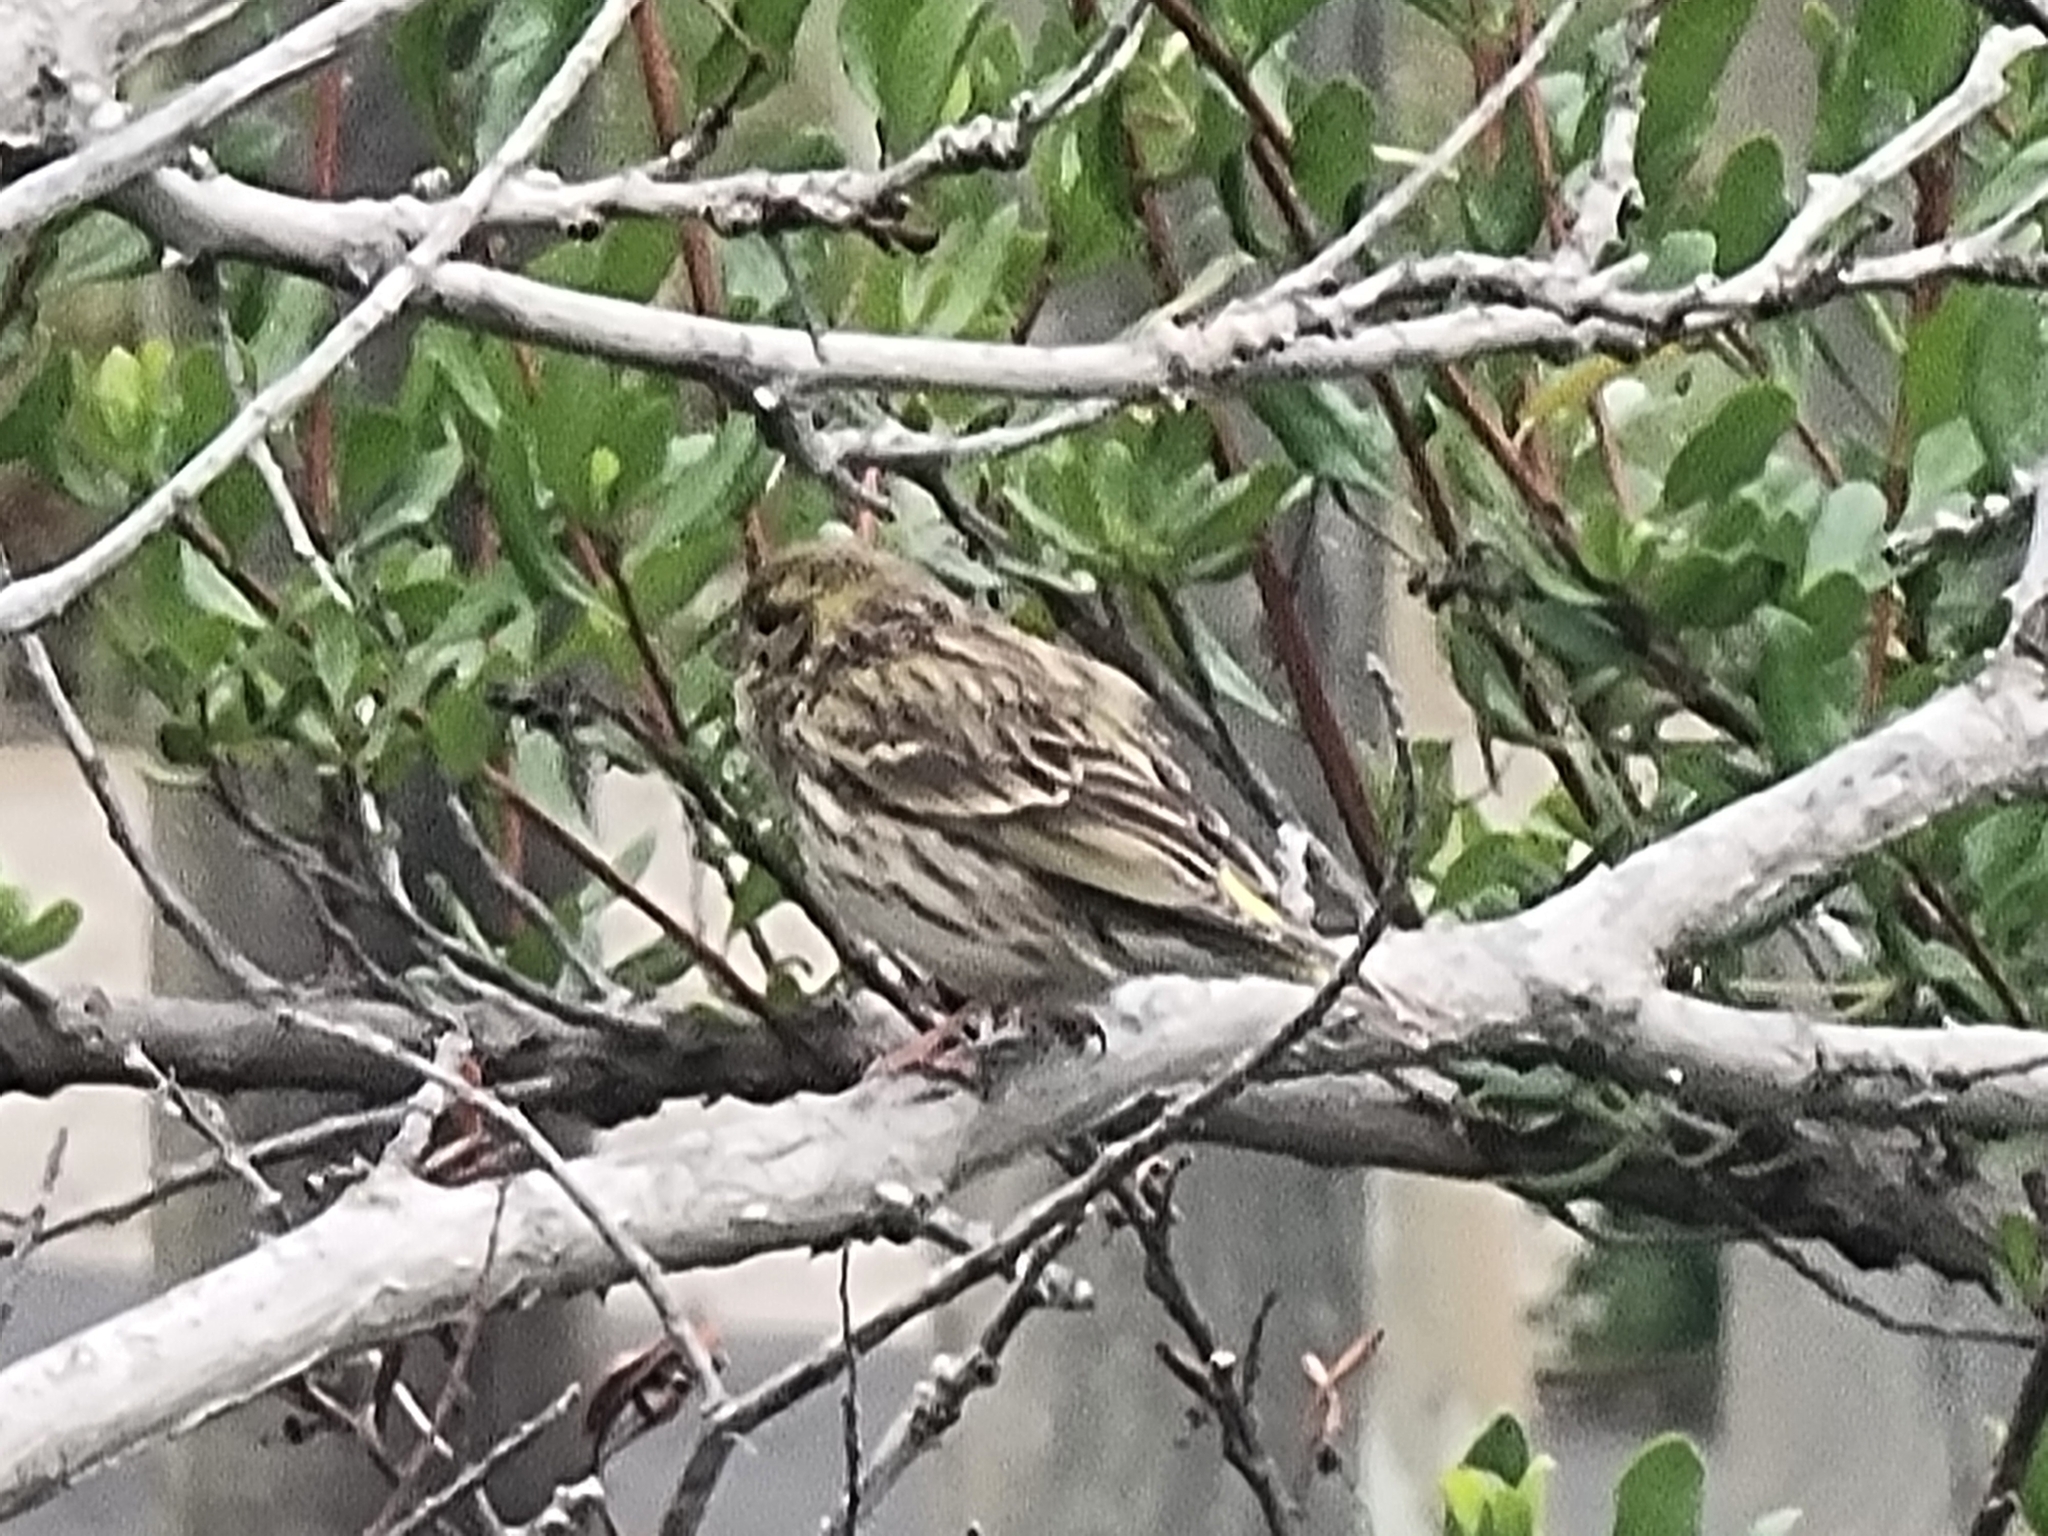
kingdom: Animalia
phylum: Chordata
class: Aves
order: Passeriformes
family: Fringillidae
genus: Serinus
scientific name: Serinus serinus
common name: European serin
